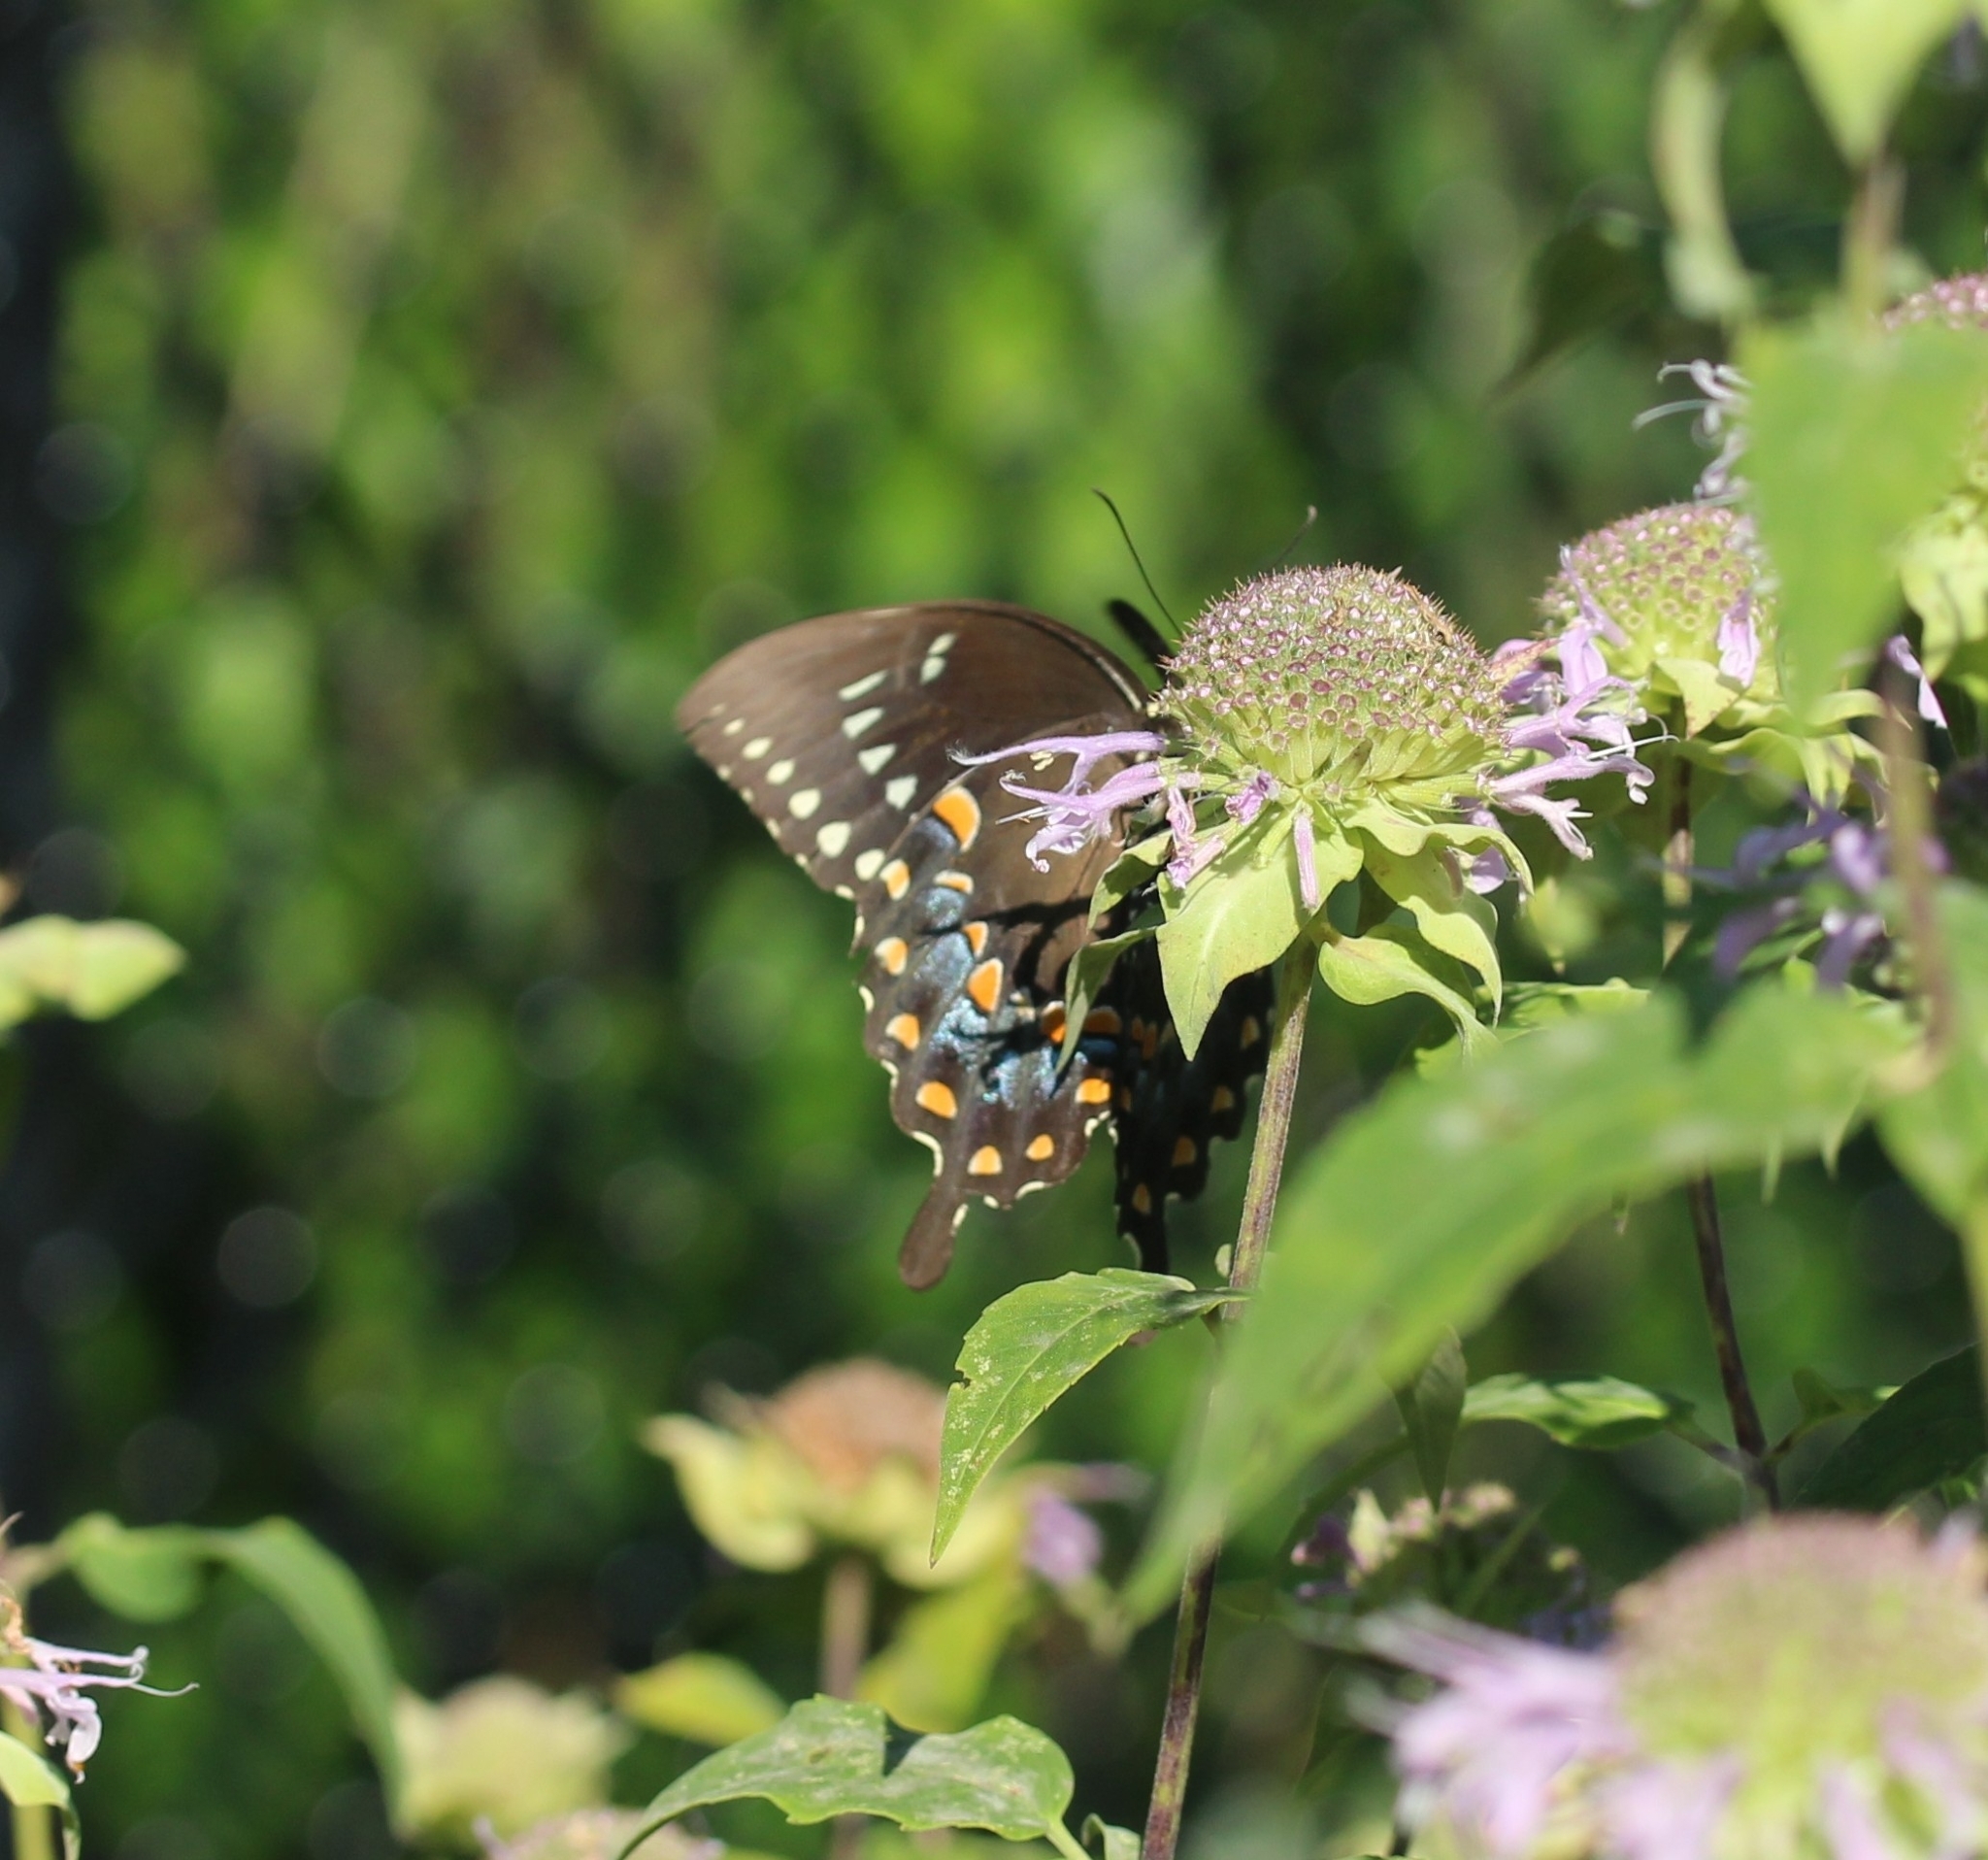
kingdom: Animalia
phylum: Arthropoda
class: Insecta
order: Lepidoptera
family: Papilionidae
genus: Papilio
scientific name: Papilio troilus
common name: Spicebush swallowtail
